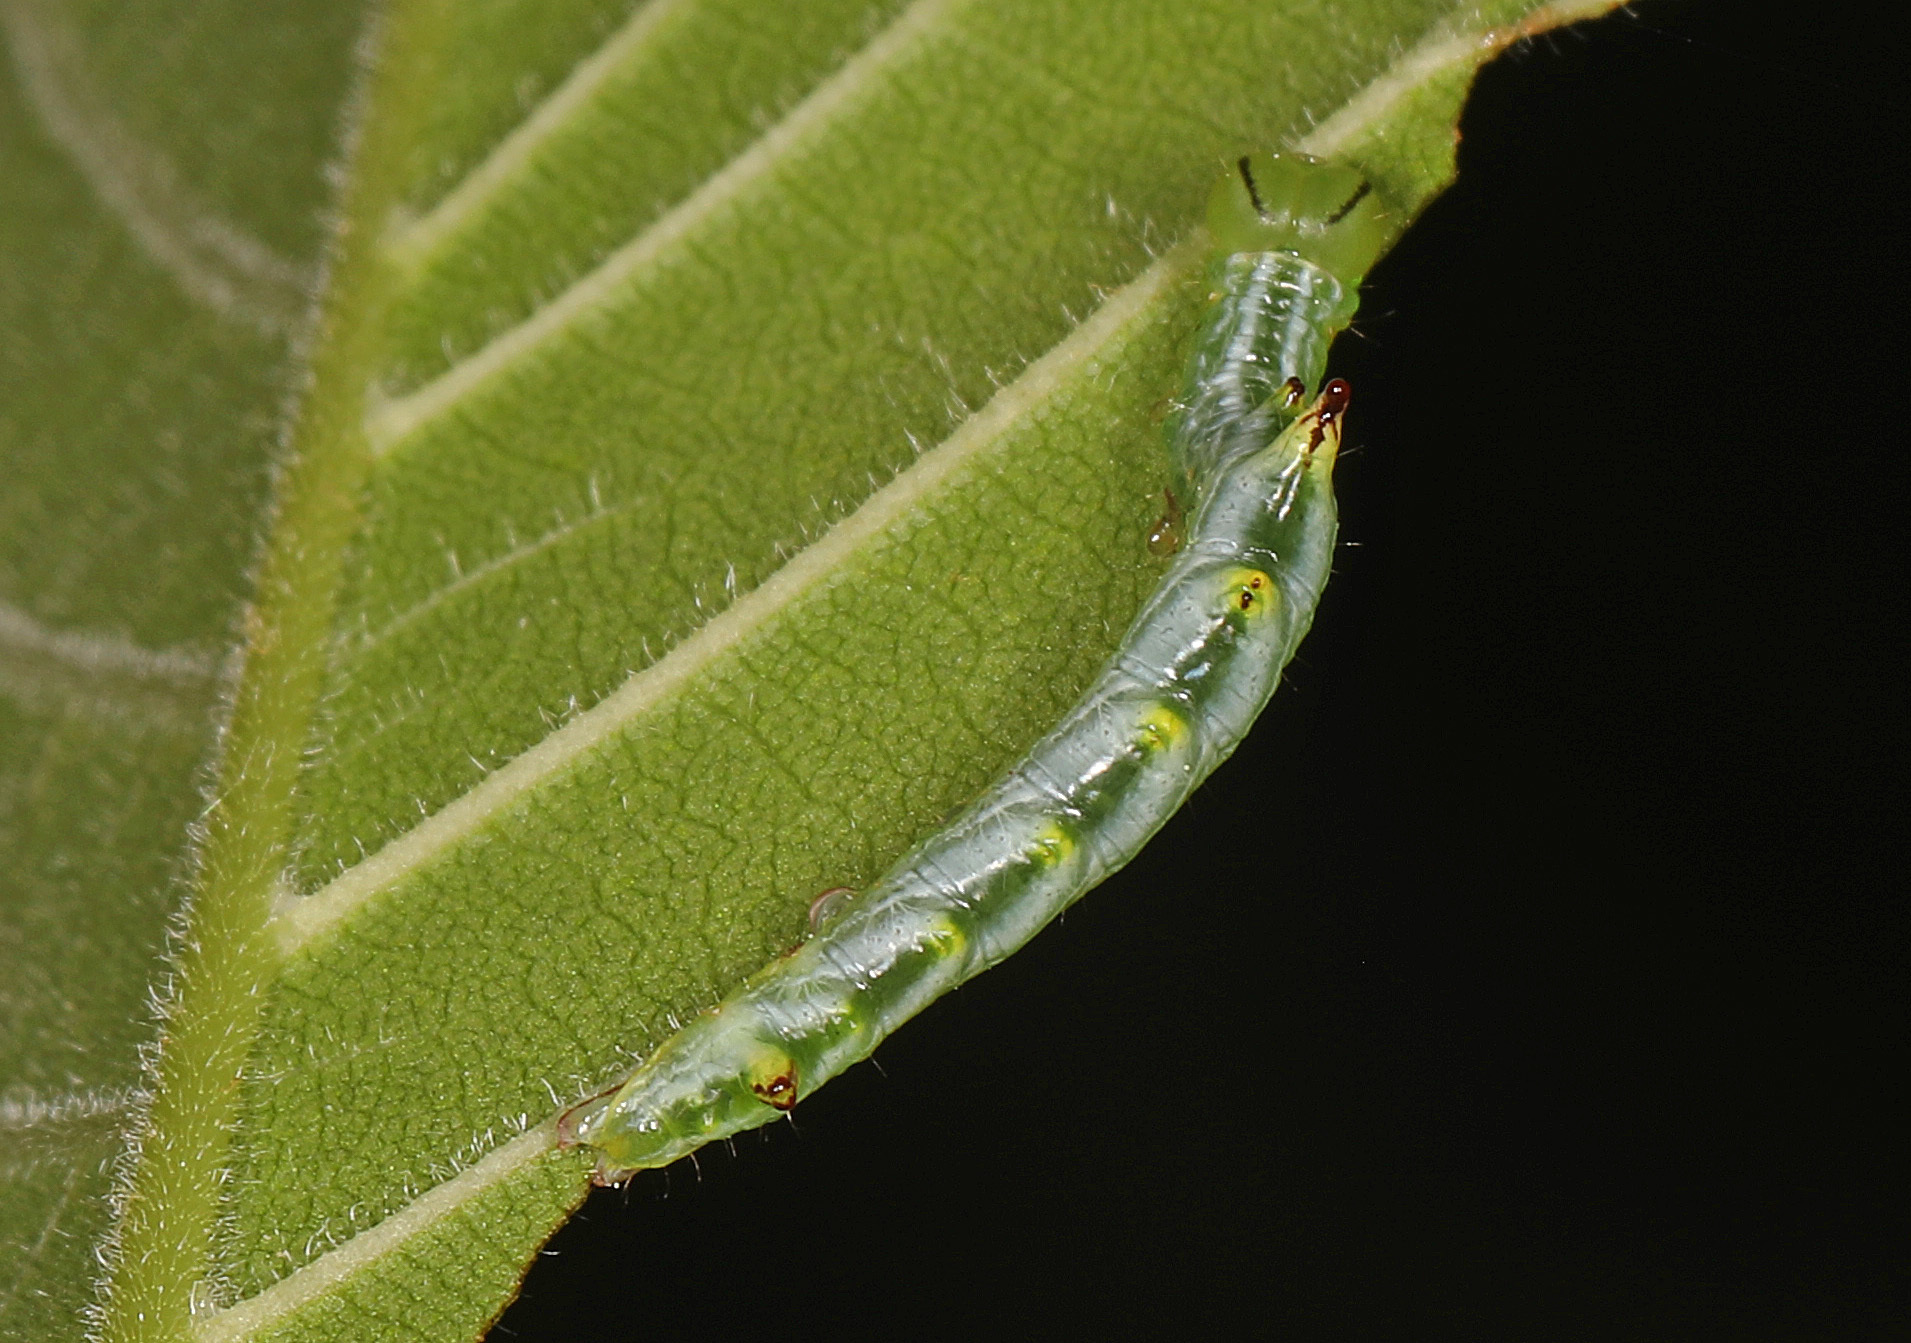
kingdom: Animalia
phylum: Arthropoda
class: Insecta
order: Lepidoptera
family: Notodontidae
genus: Nerice
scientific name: Nerice bidentata
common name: Double-toothed prominent
